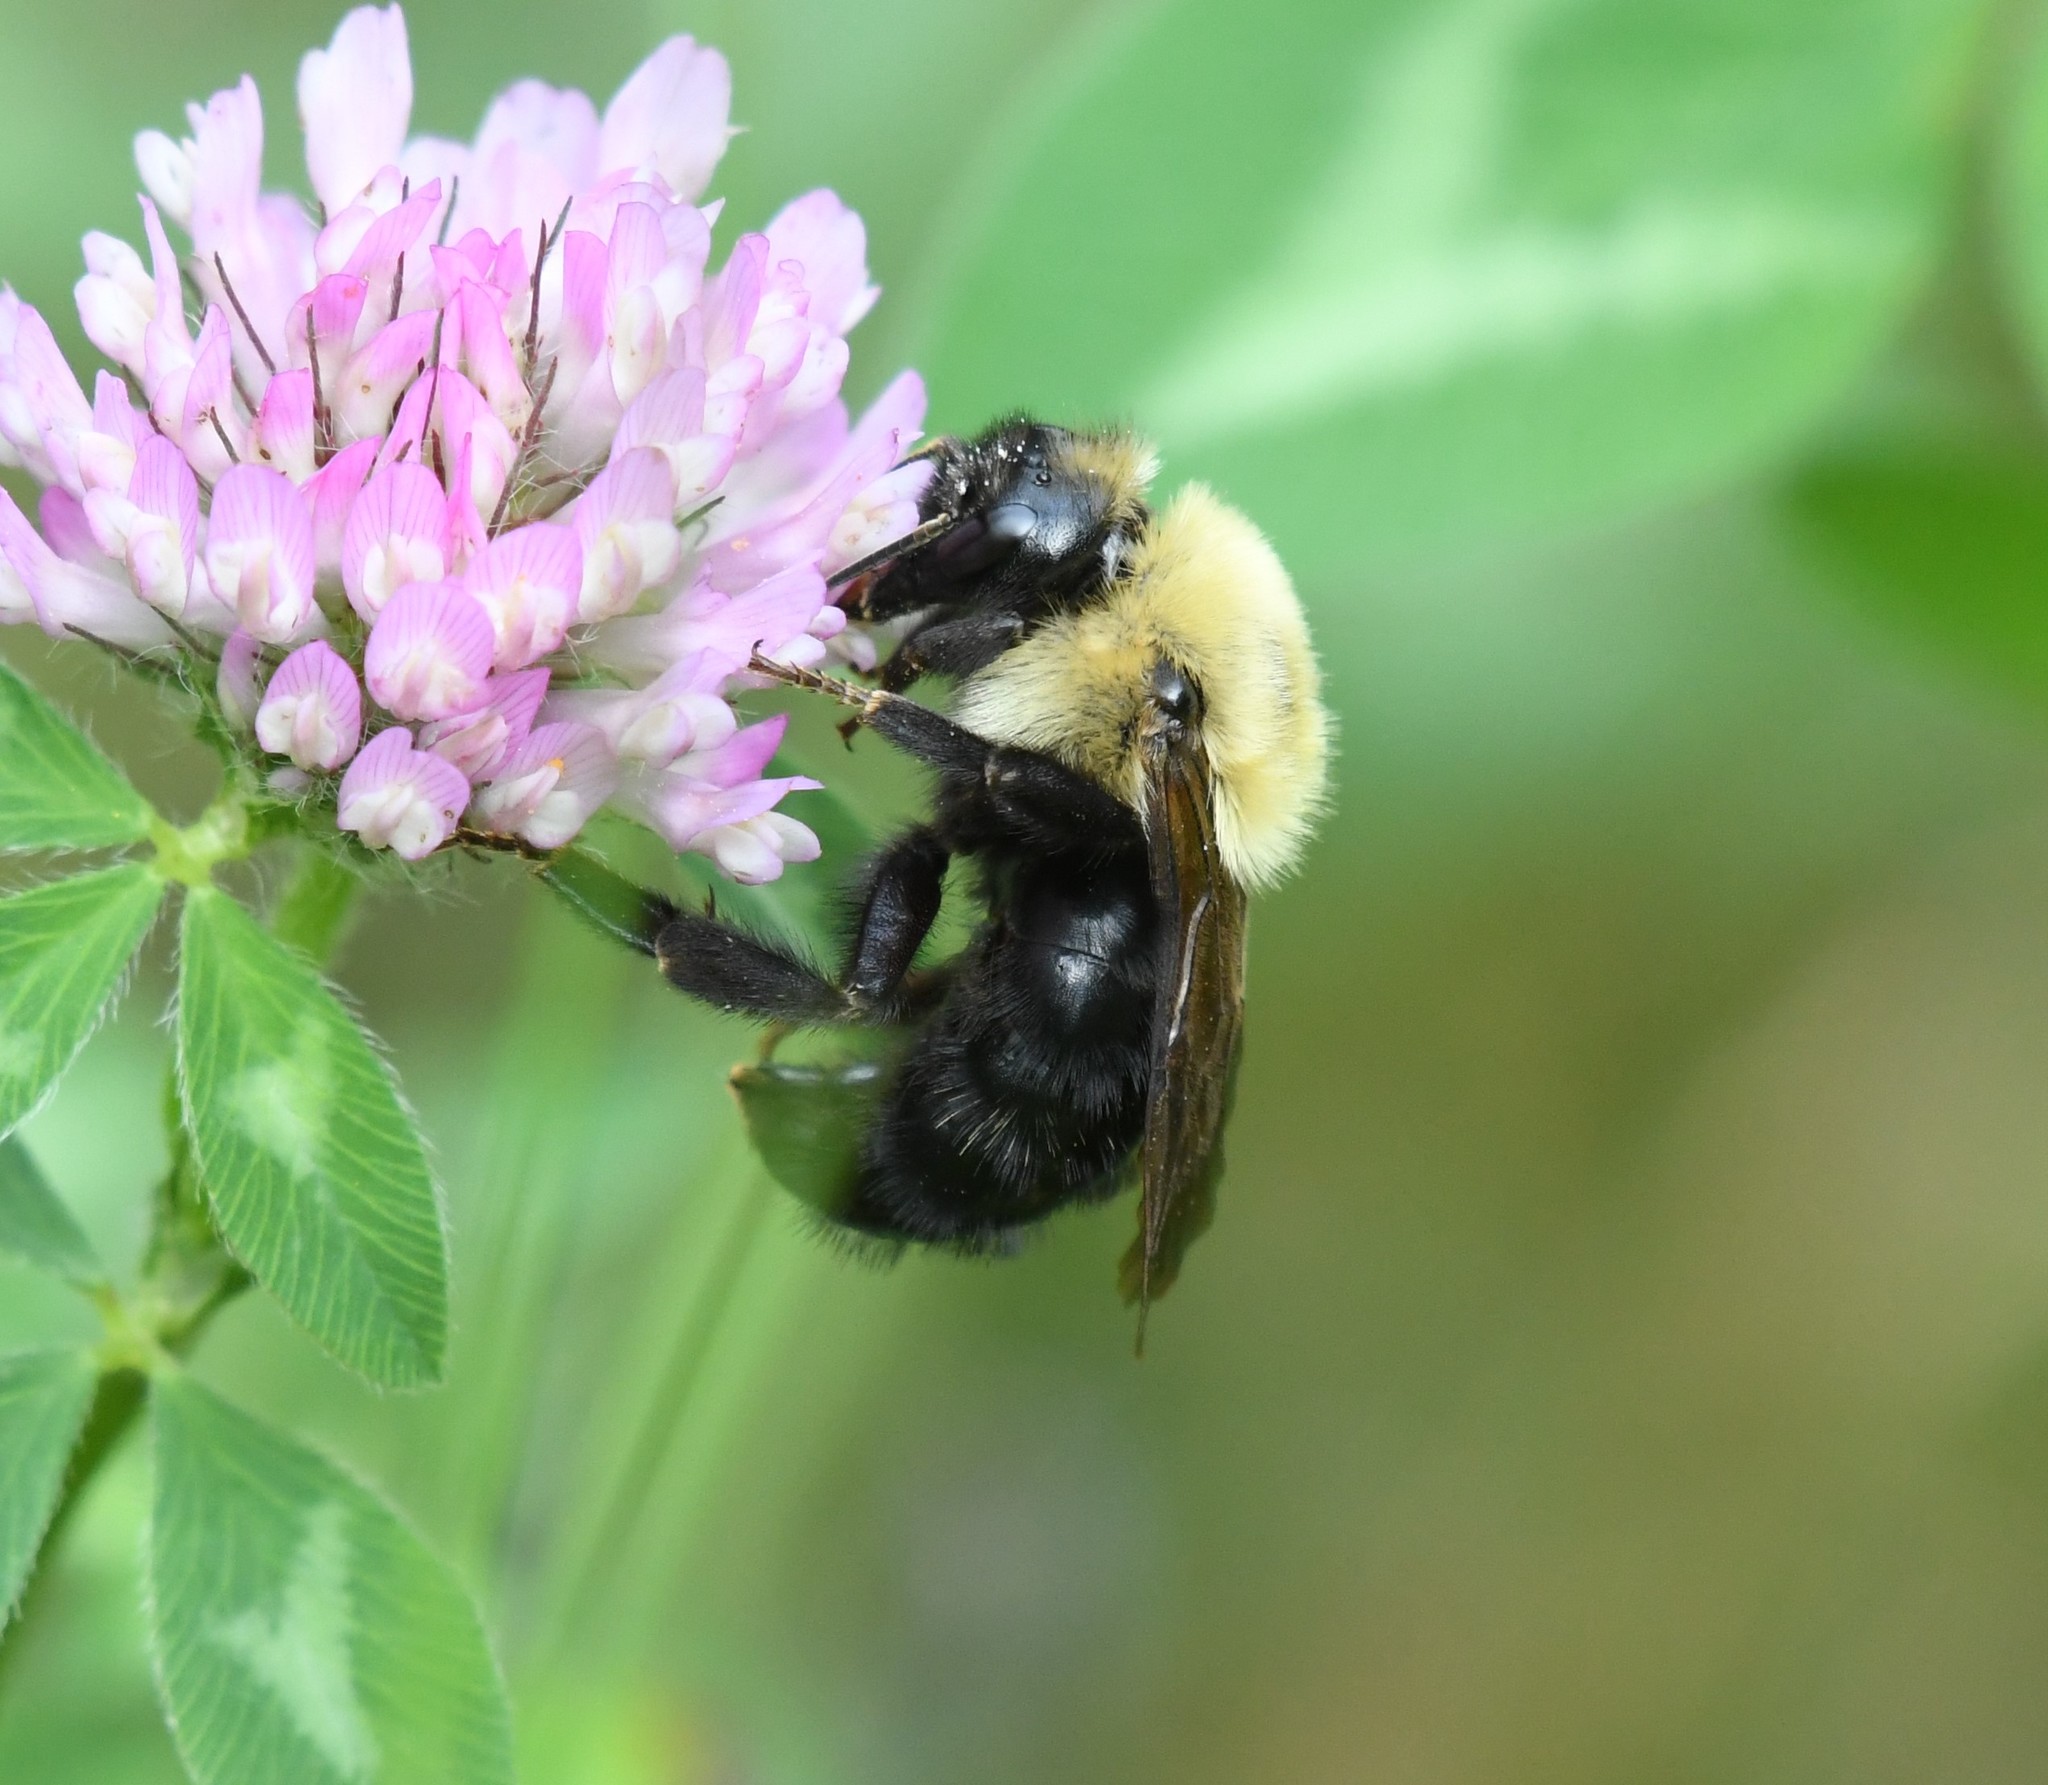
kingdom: Animalia
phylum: Arthropoda
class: Insecta
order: Hymenoptera
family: Apidae
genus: Bombus
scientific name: Bombus citrinus
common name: Lemon cuckoo bumble bee
